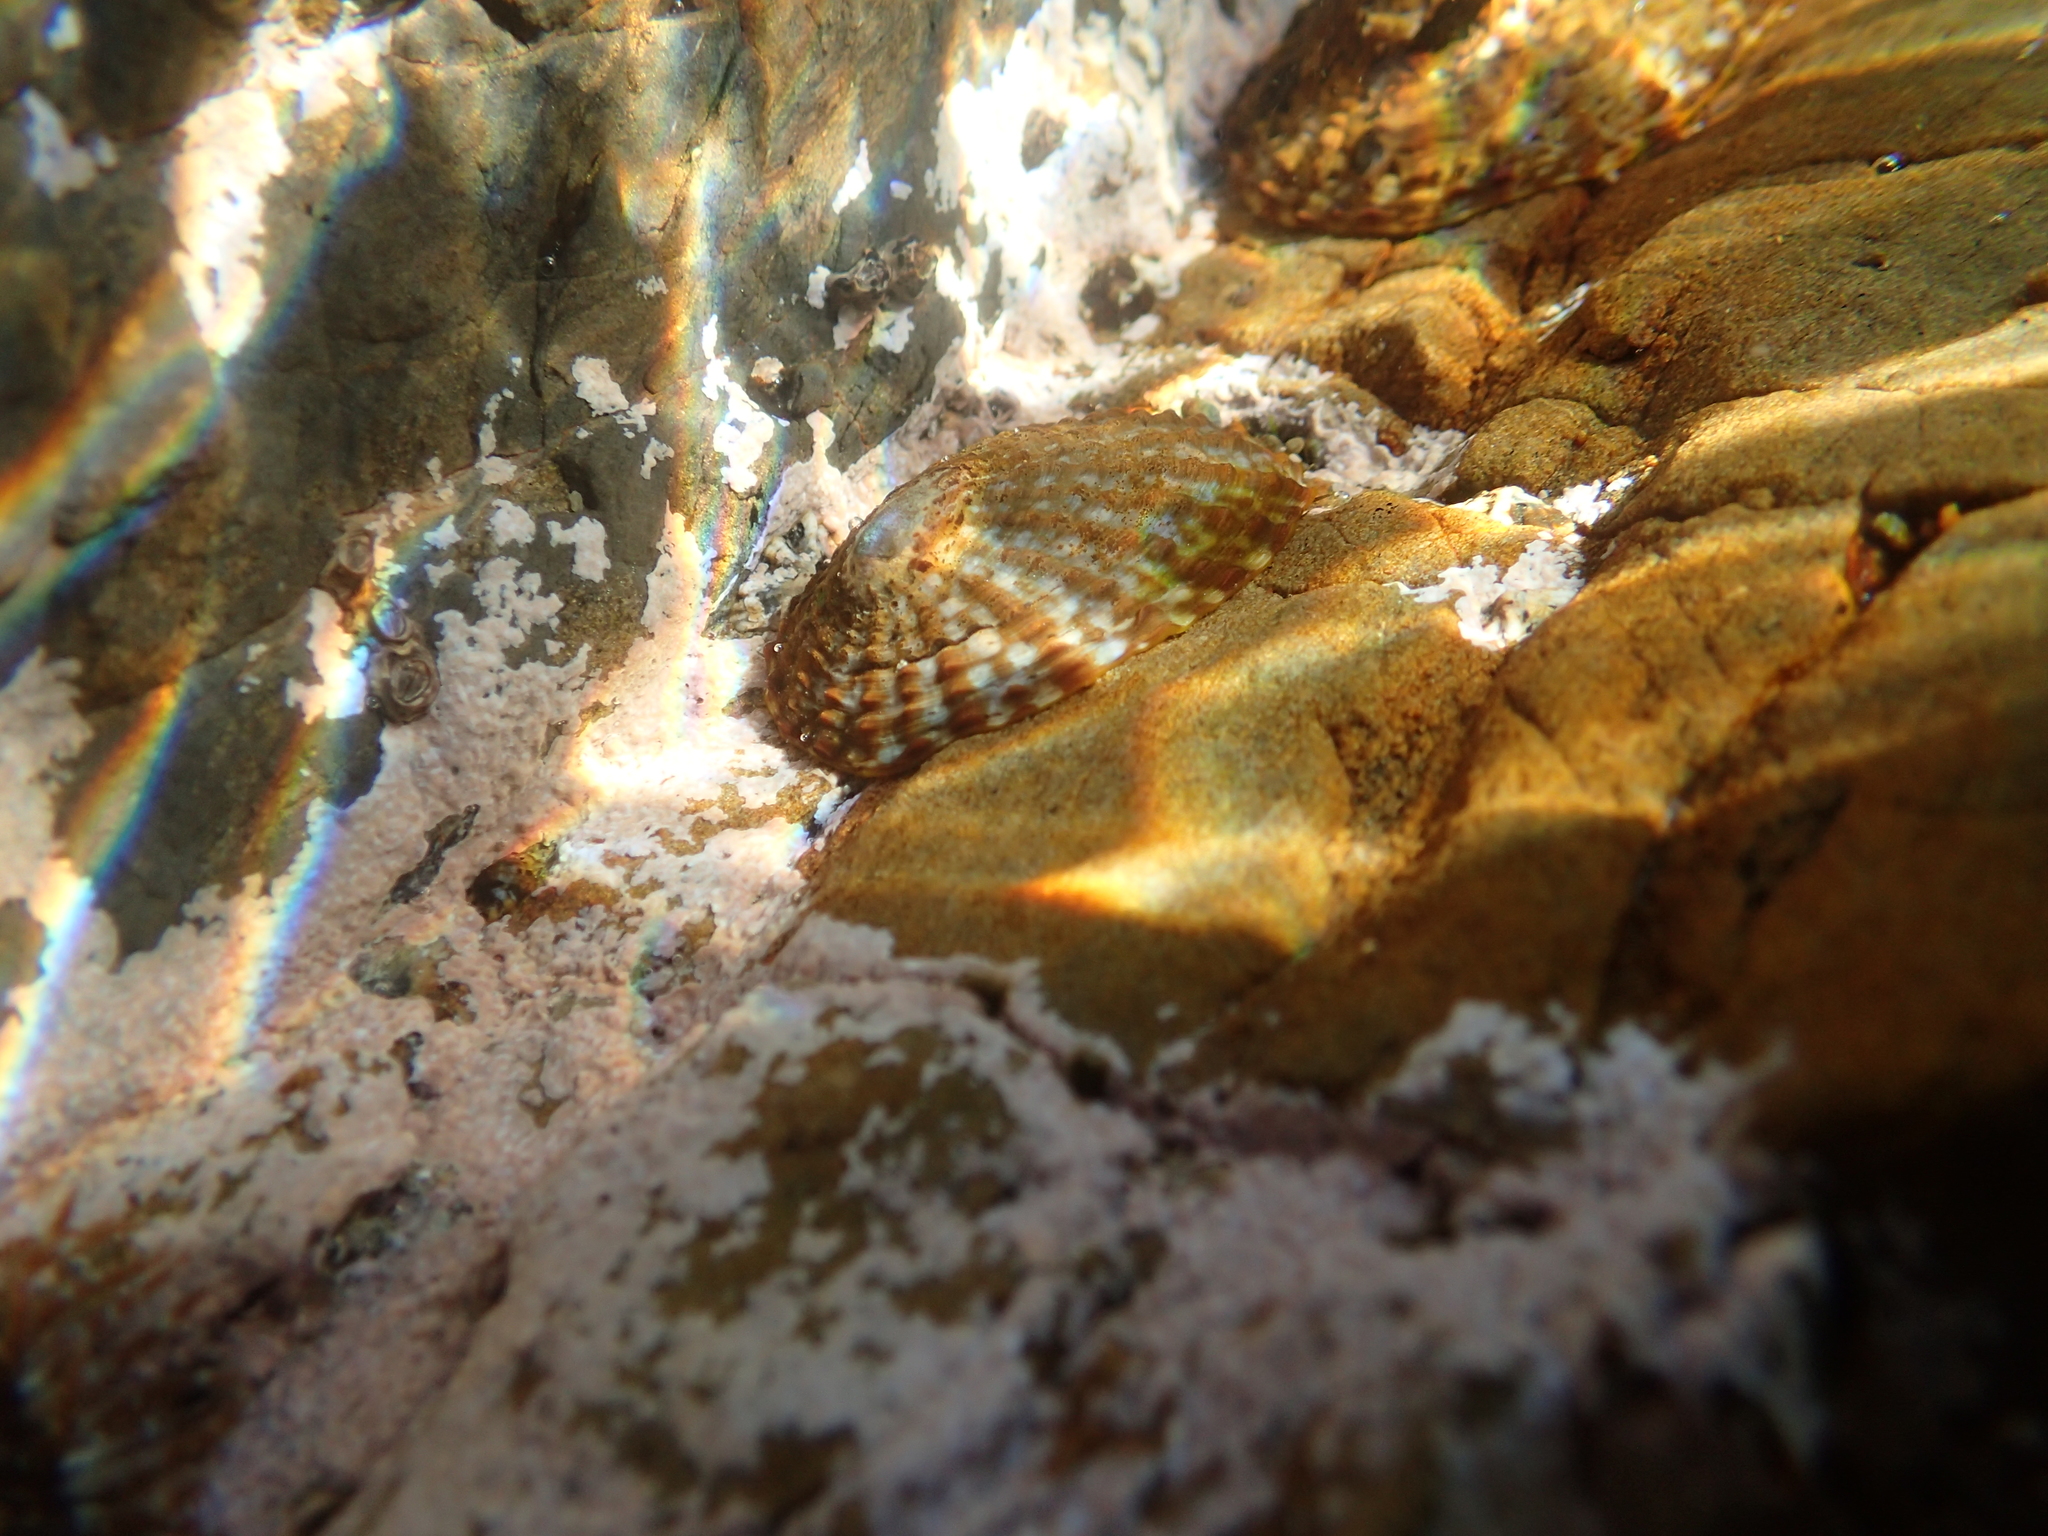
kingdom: Animalia
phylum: Mollusca
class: Gastropoda
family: Nacellidae
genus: Cellana
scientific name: Cellana denticulata
